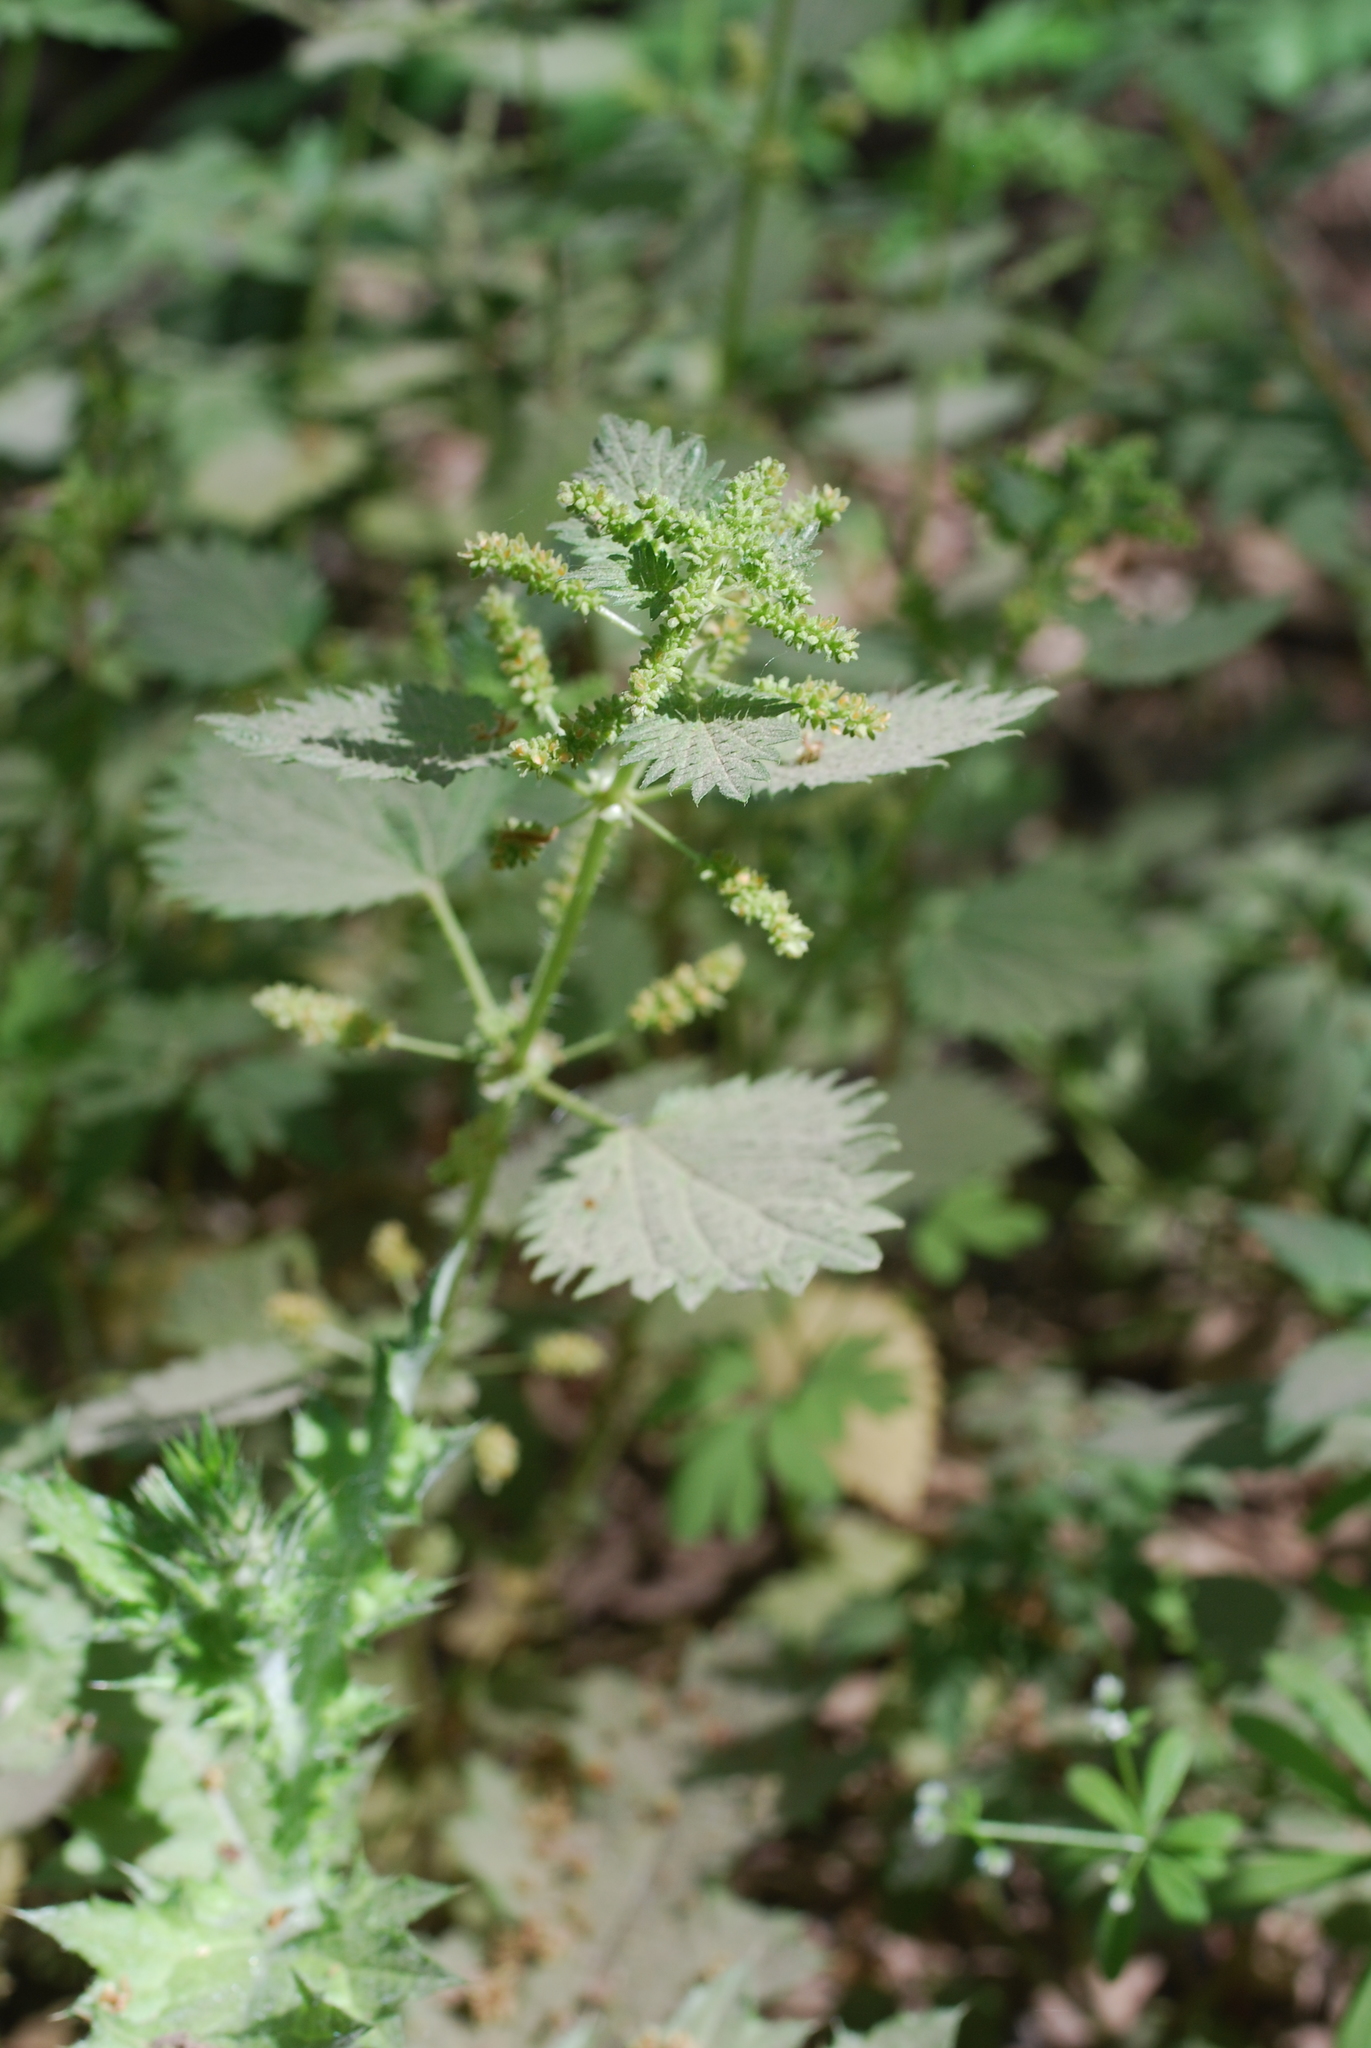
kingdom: Plantae
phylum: Tracheophyta
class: Magnoliopsida
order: Rosales
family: Urticaceae
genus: Urtica
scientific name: Urtica membranacea
